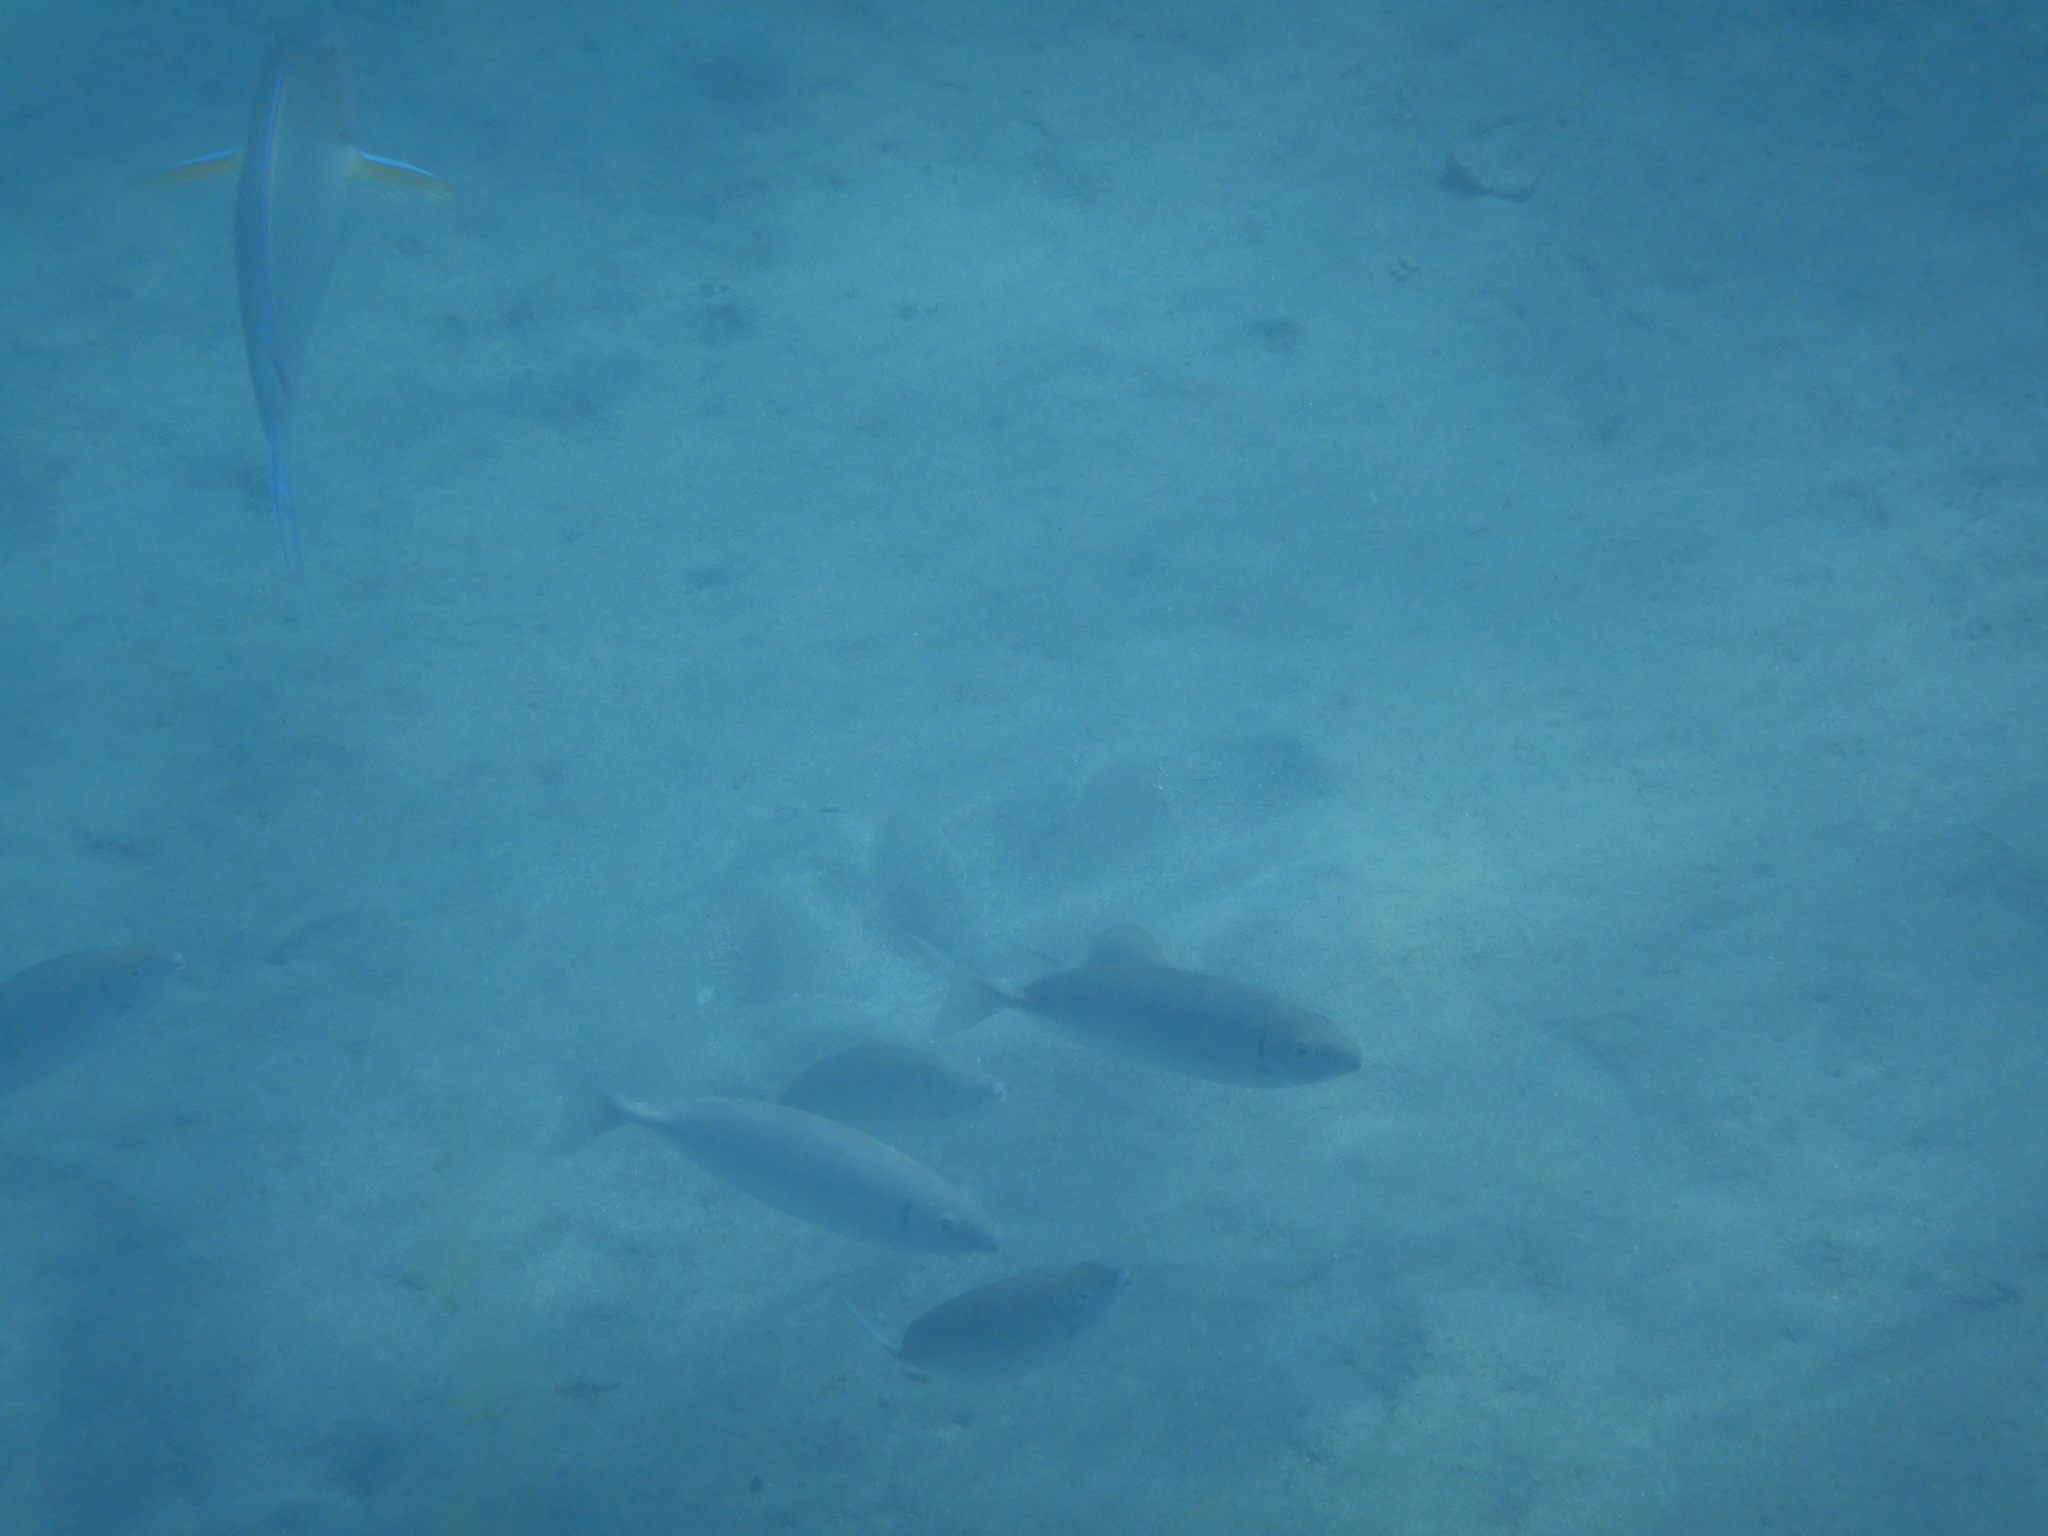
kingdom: Animalia
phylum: Chordata
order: Perciformes
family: Siganidae
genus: Siganus
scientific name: Siganus argenteus
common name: Forktail rabbitfish
